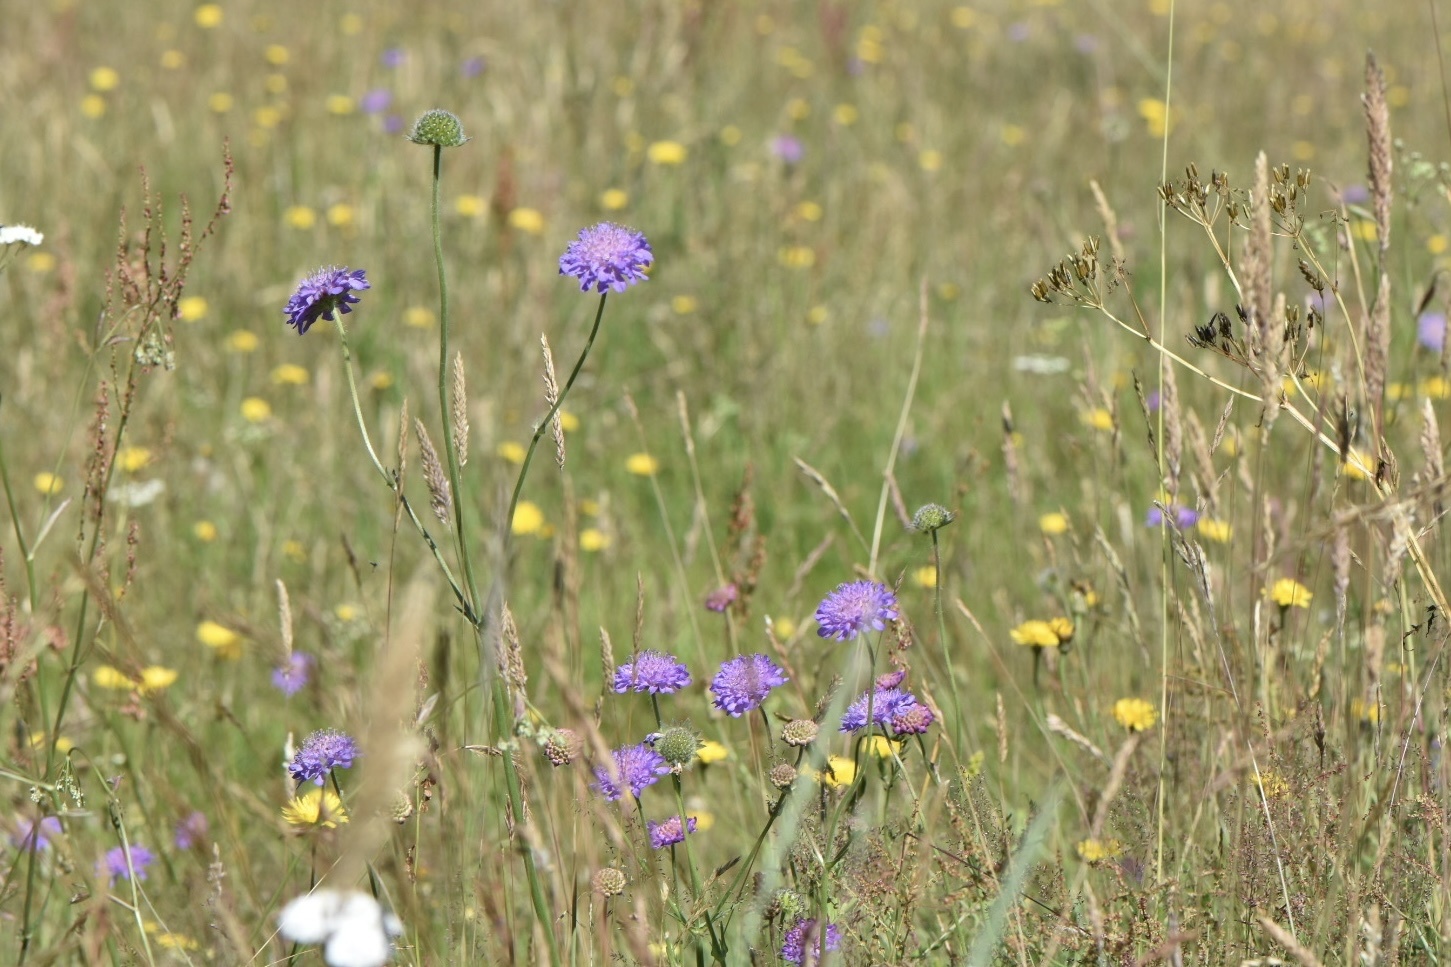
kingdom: Plantae
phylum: Tracheophyta
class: Magnoliopsida
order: Dipsacales
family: Caprifoliaceae
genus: Knautia
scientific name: Knautia arvensis
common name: Field scabiosa
